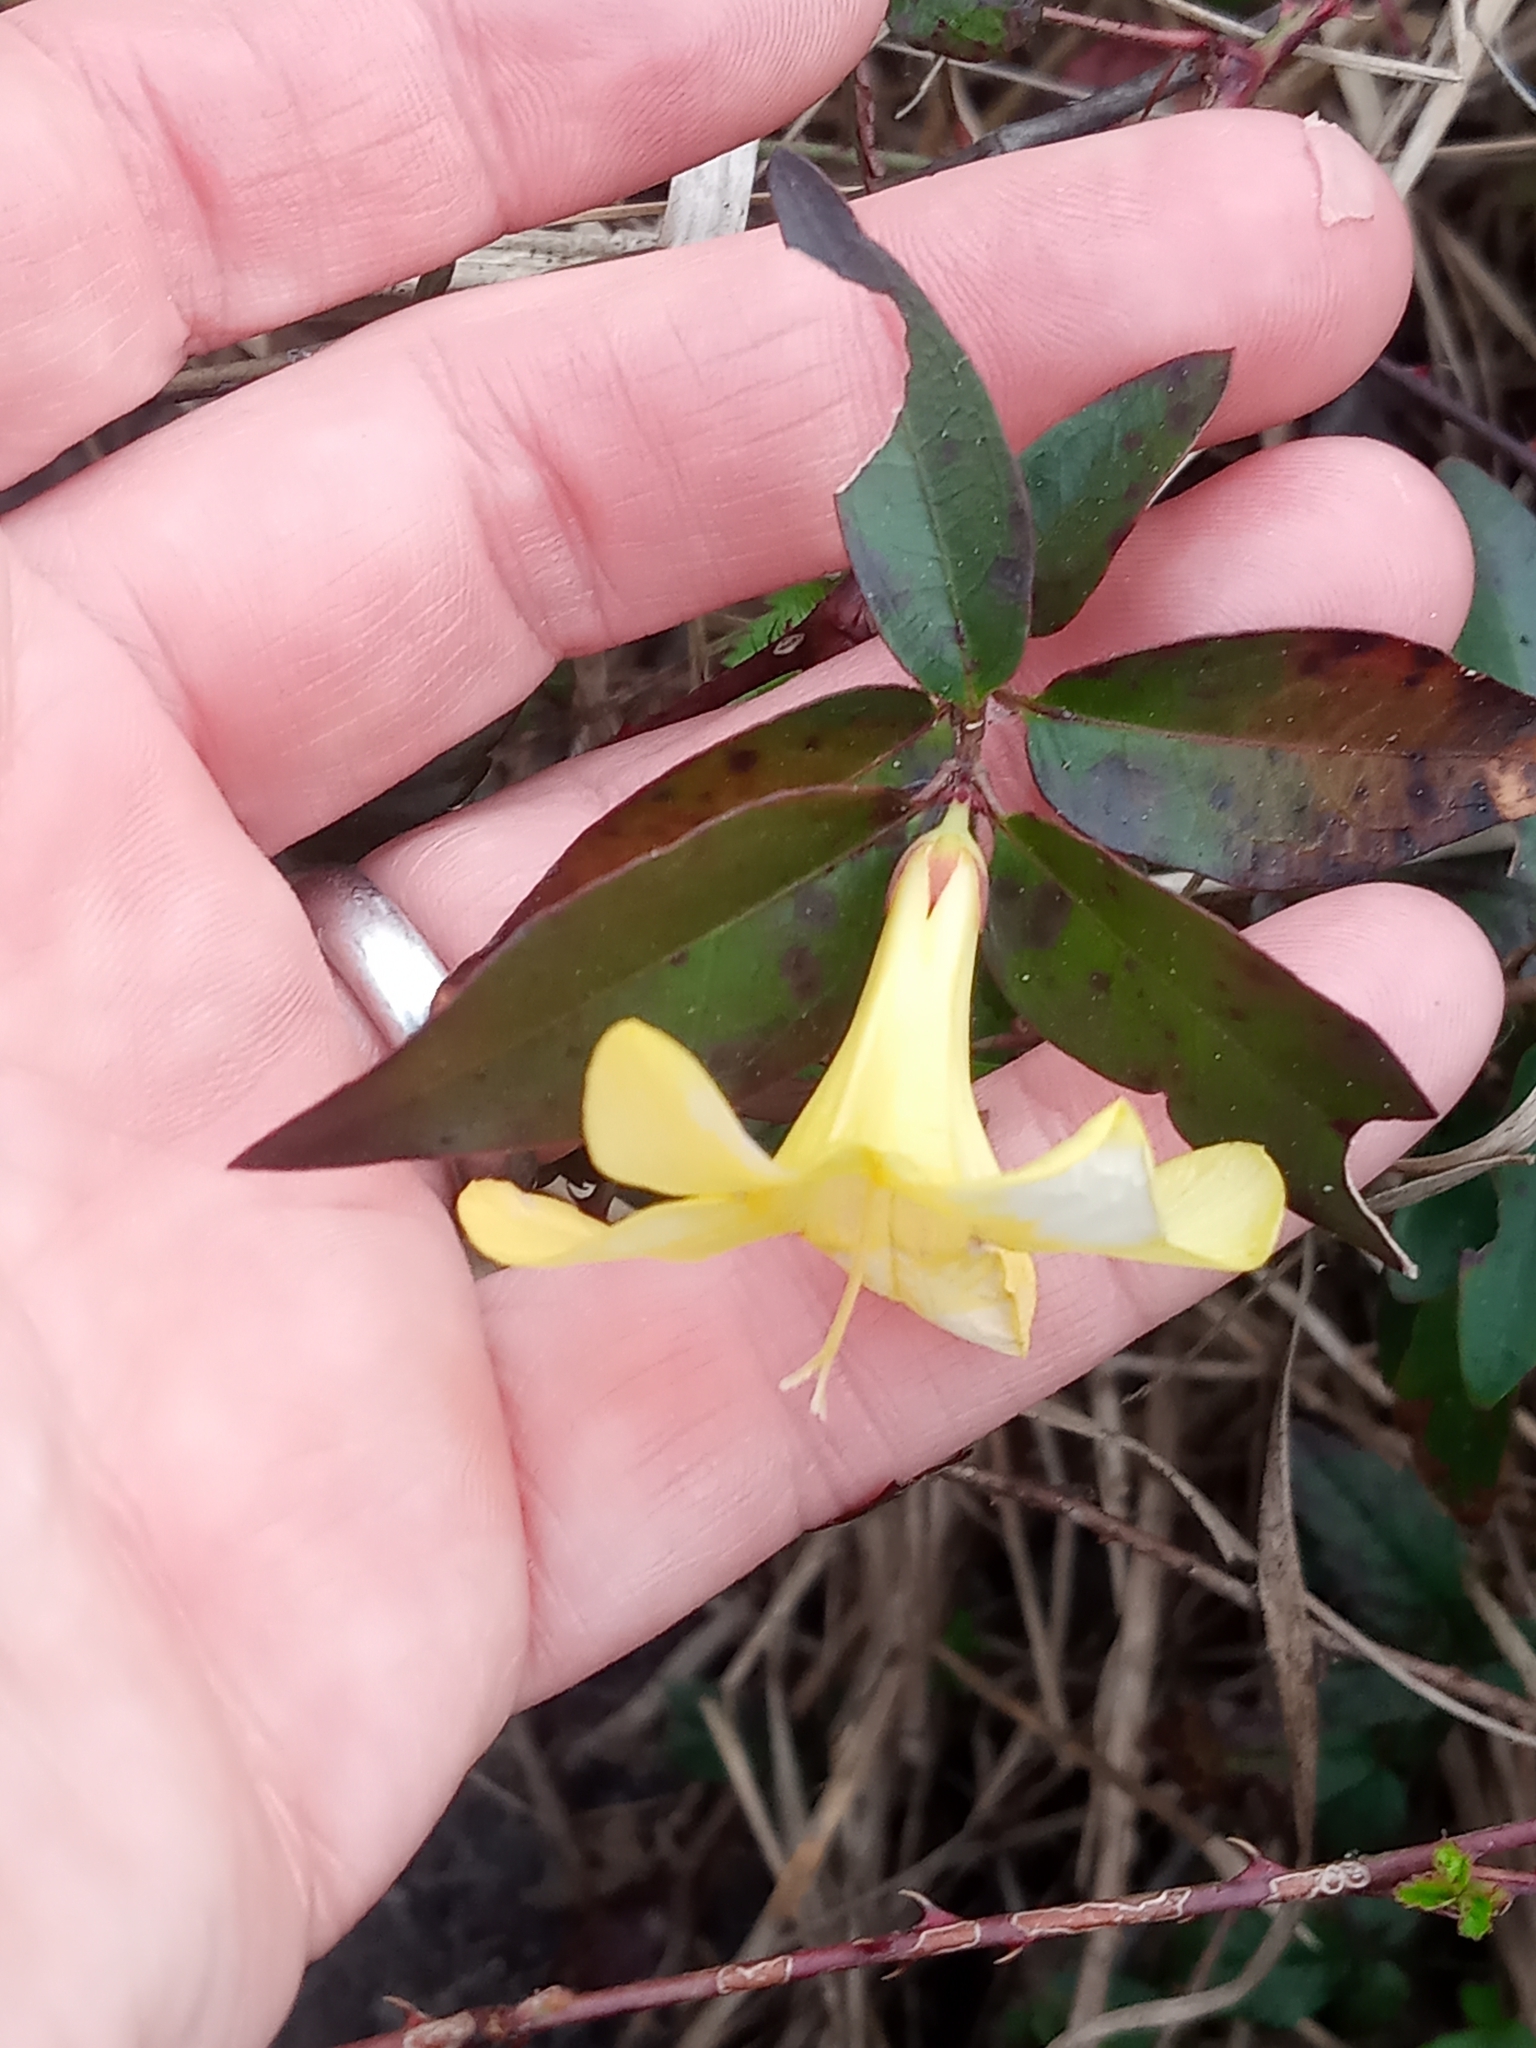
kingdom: Plantae
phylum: Tracheophyta
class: Magnoliopsida
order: Gentianales
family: Gelsemiaceae
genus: Gelsemium
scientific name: Gelsemium rankinii
